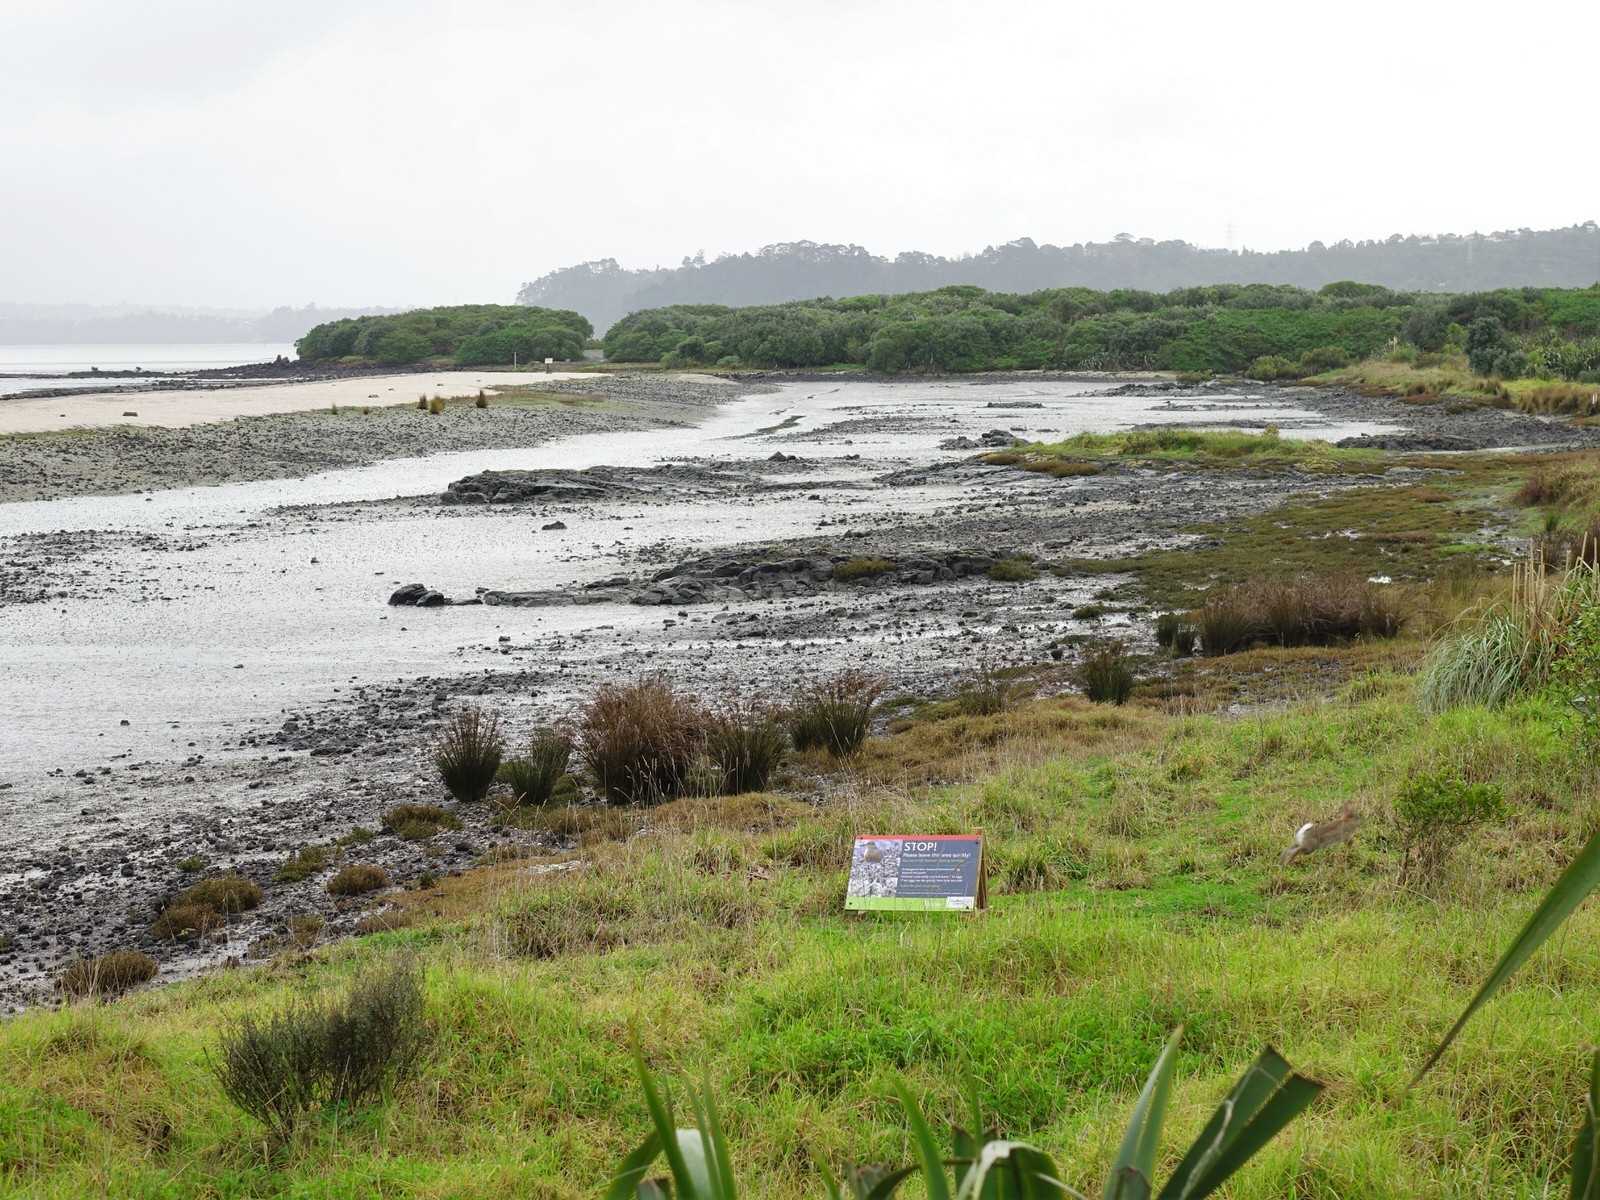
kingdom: Animalia
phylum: Chordata
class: Mammalia
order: Lagomorpha
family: Leporidae
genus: Oryctolagus
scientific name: Oryctolagus cuniculus
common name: European rabbit
